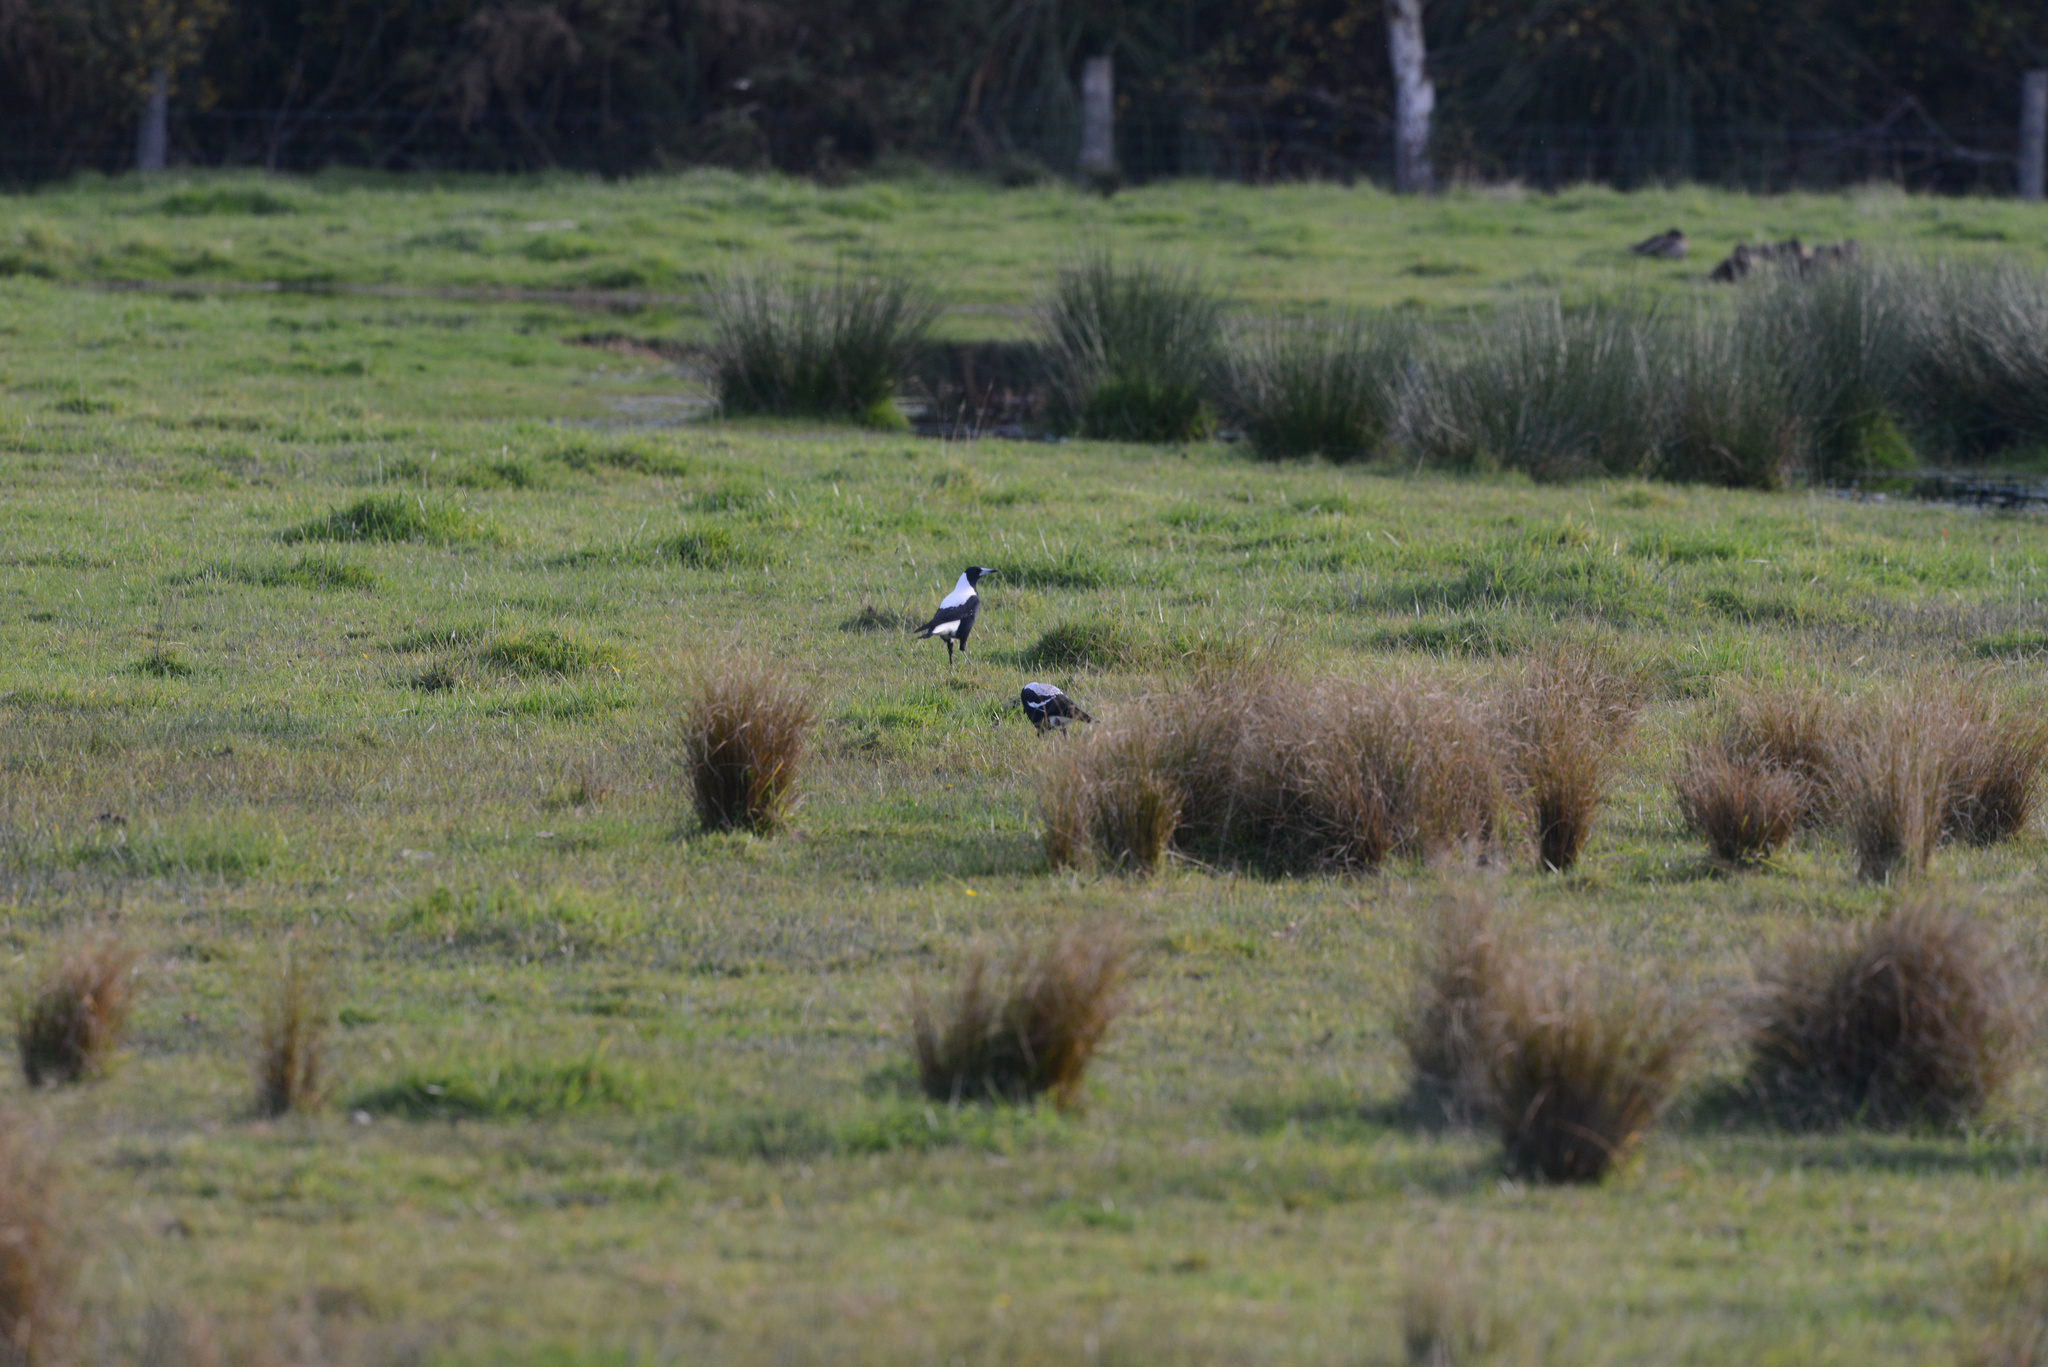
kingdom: Animalia
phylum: Chordata
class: Aves
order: Passeriformes
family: Cracticidae
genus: Gymnorhina
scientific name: Gymnorhina tibicen
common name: Australian magpie
